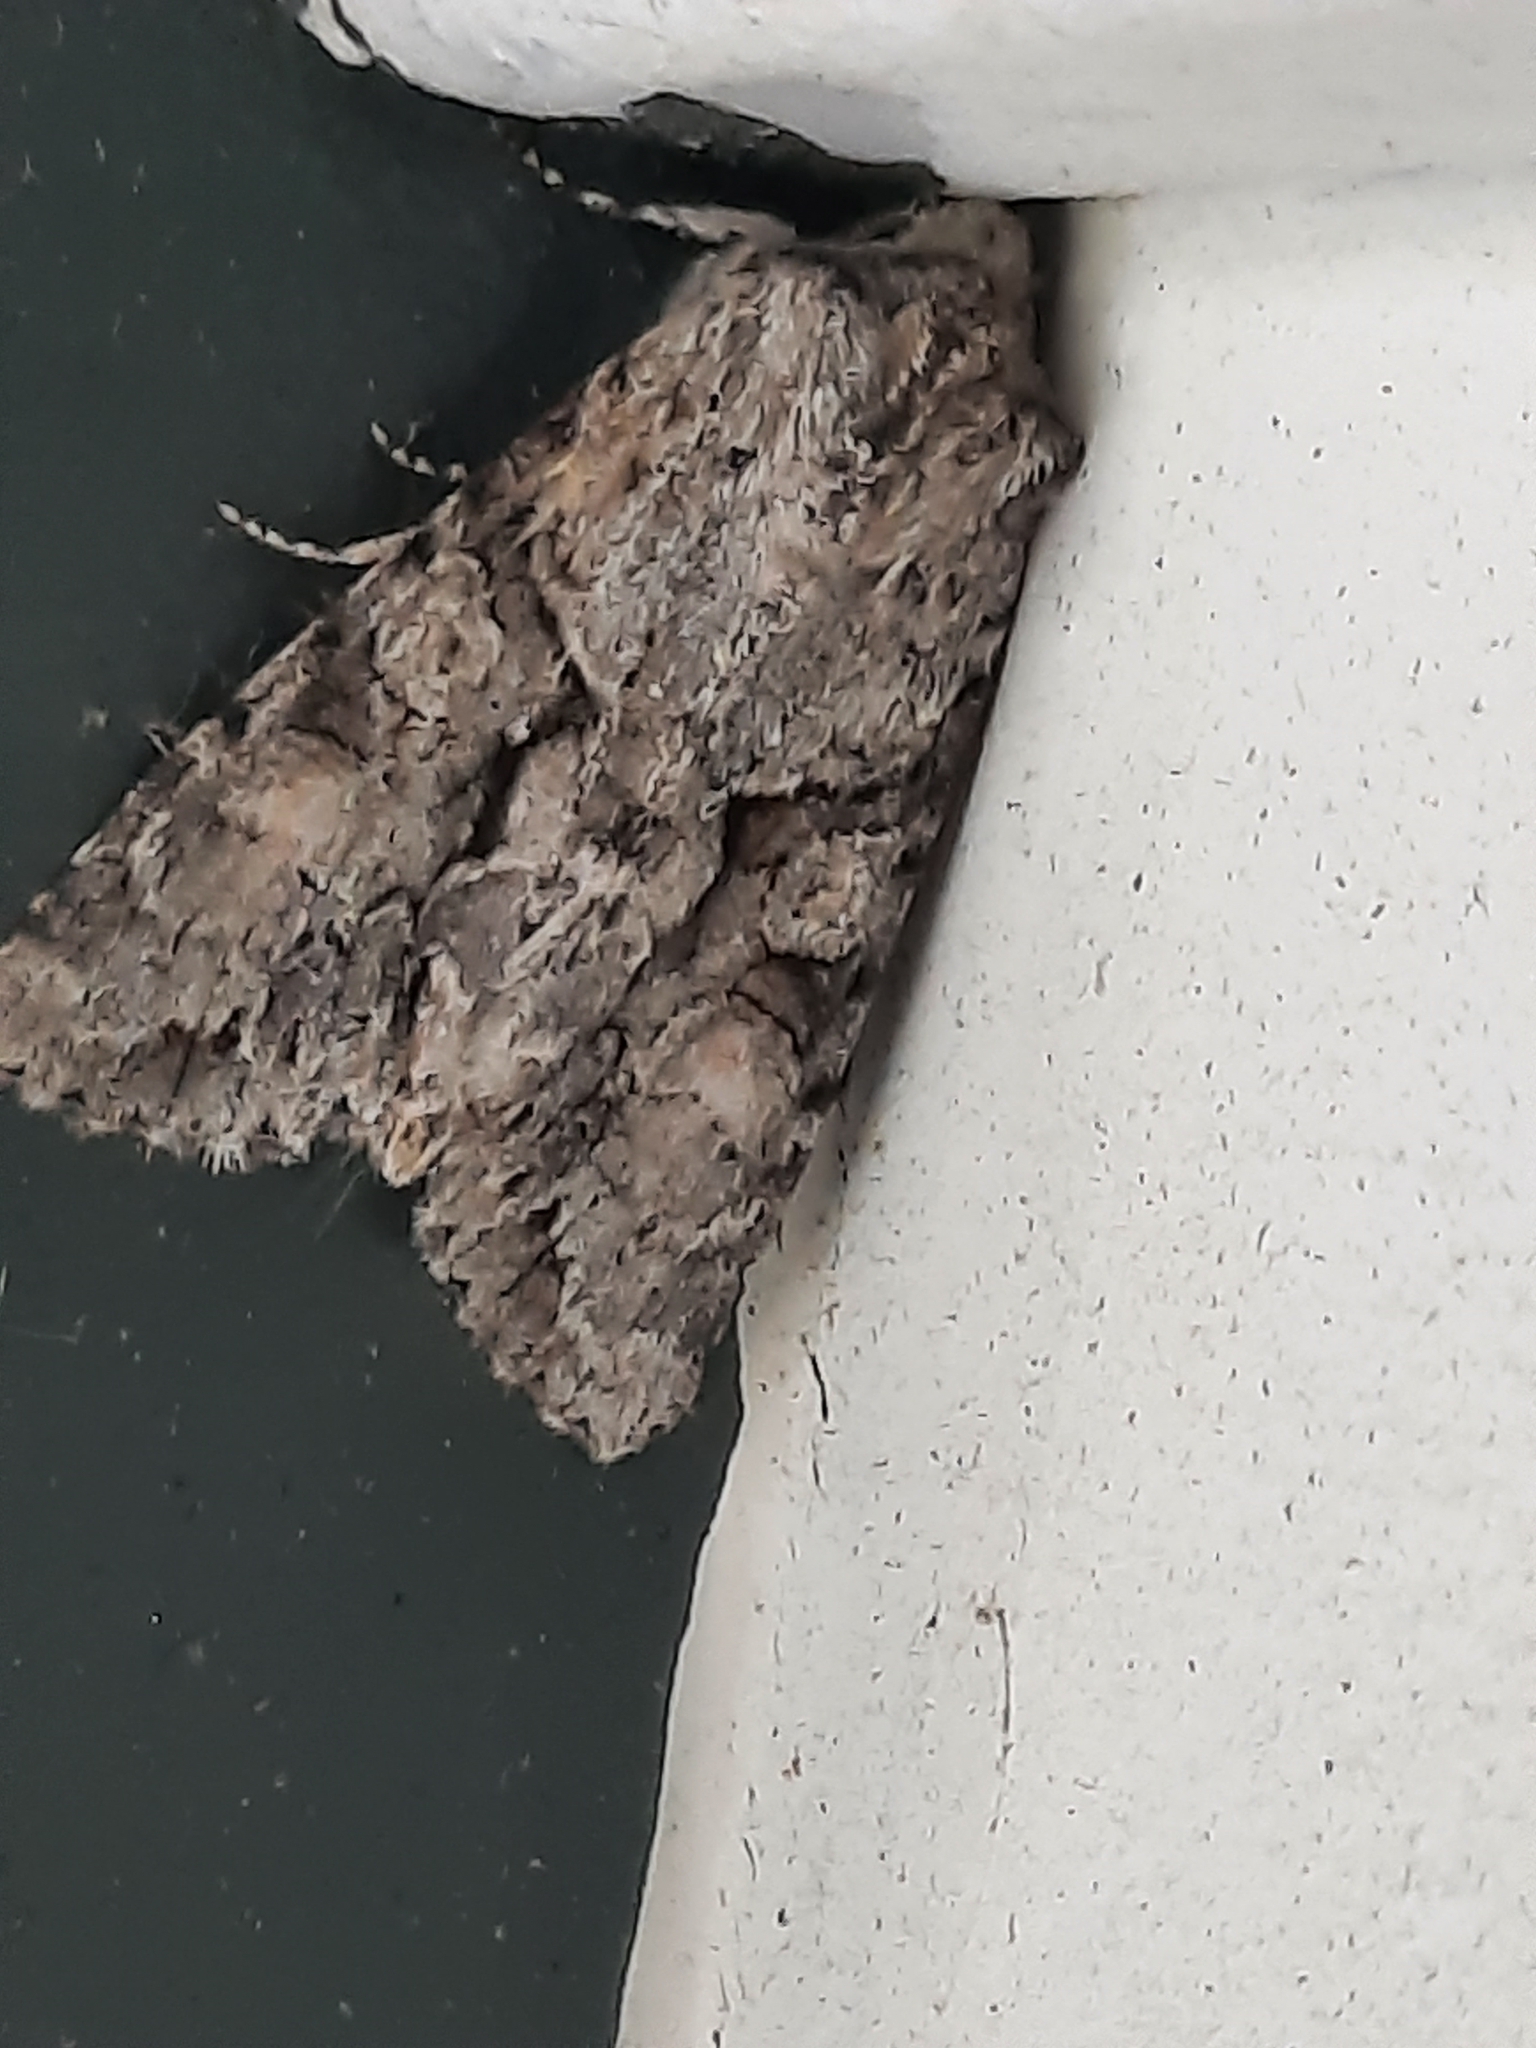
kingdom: Animalia
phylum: Arthropoda
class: Insecta
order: Lepidoptera
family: Noctuidae
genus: Achatia
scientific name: Achatia distincta
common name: Distinct quaker
